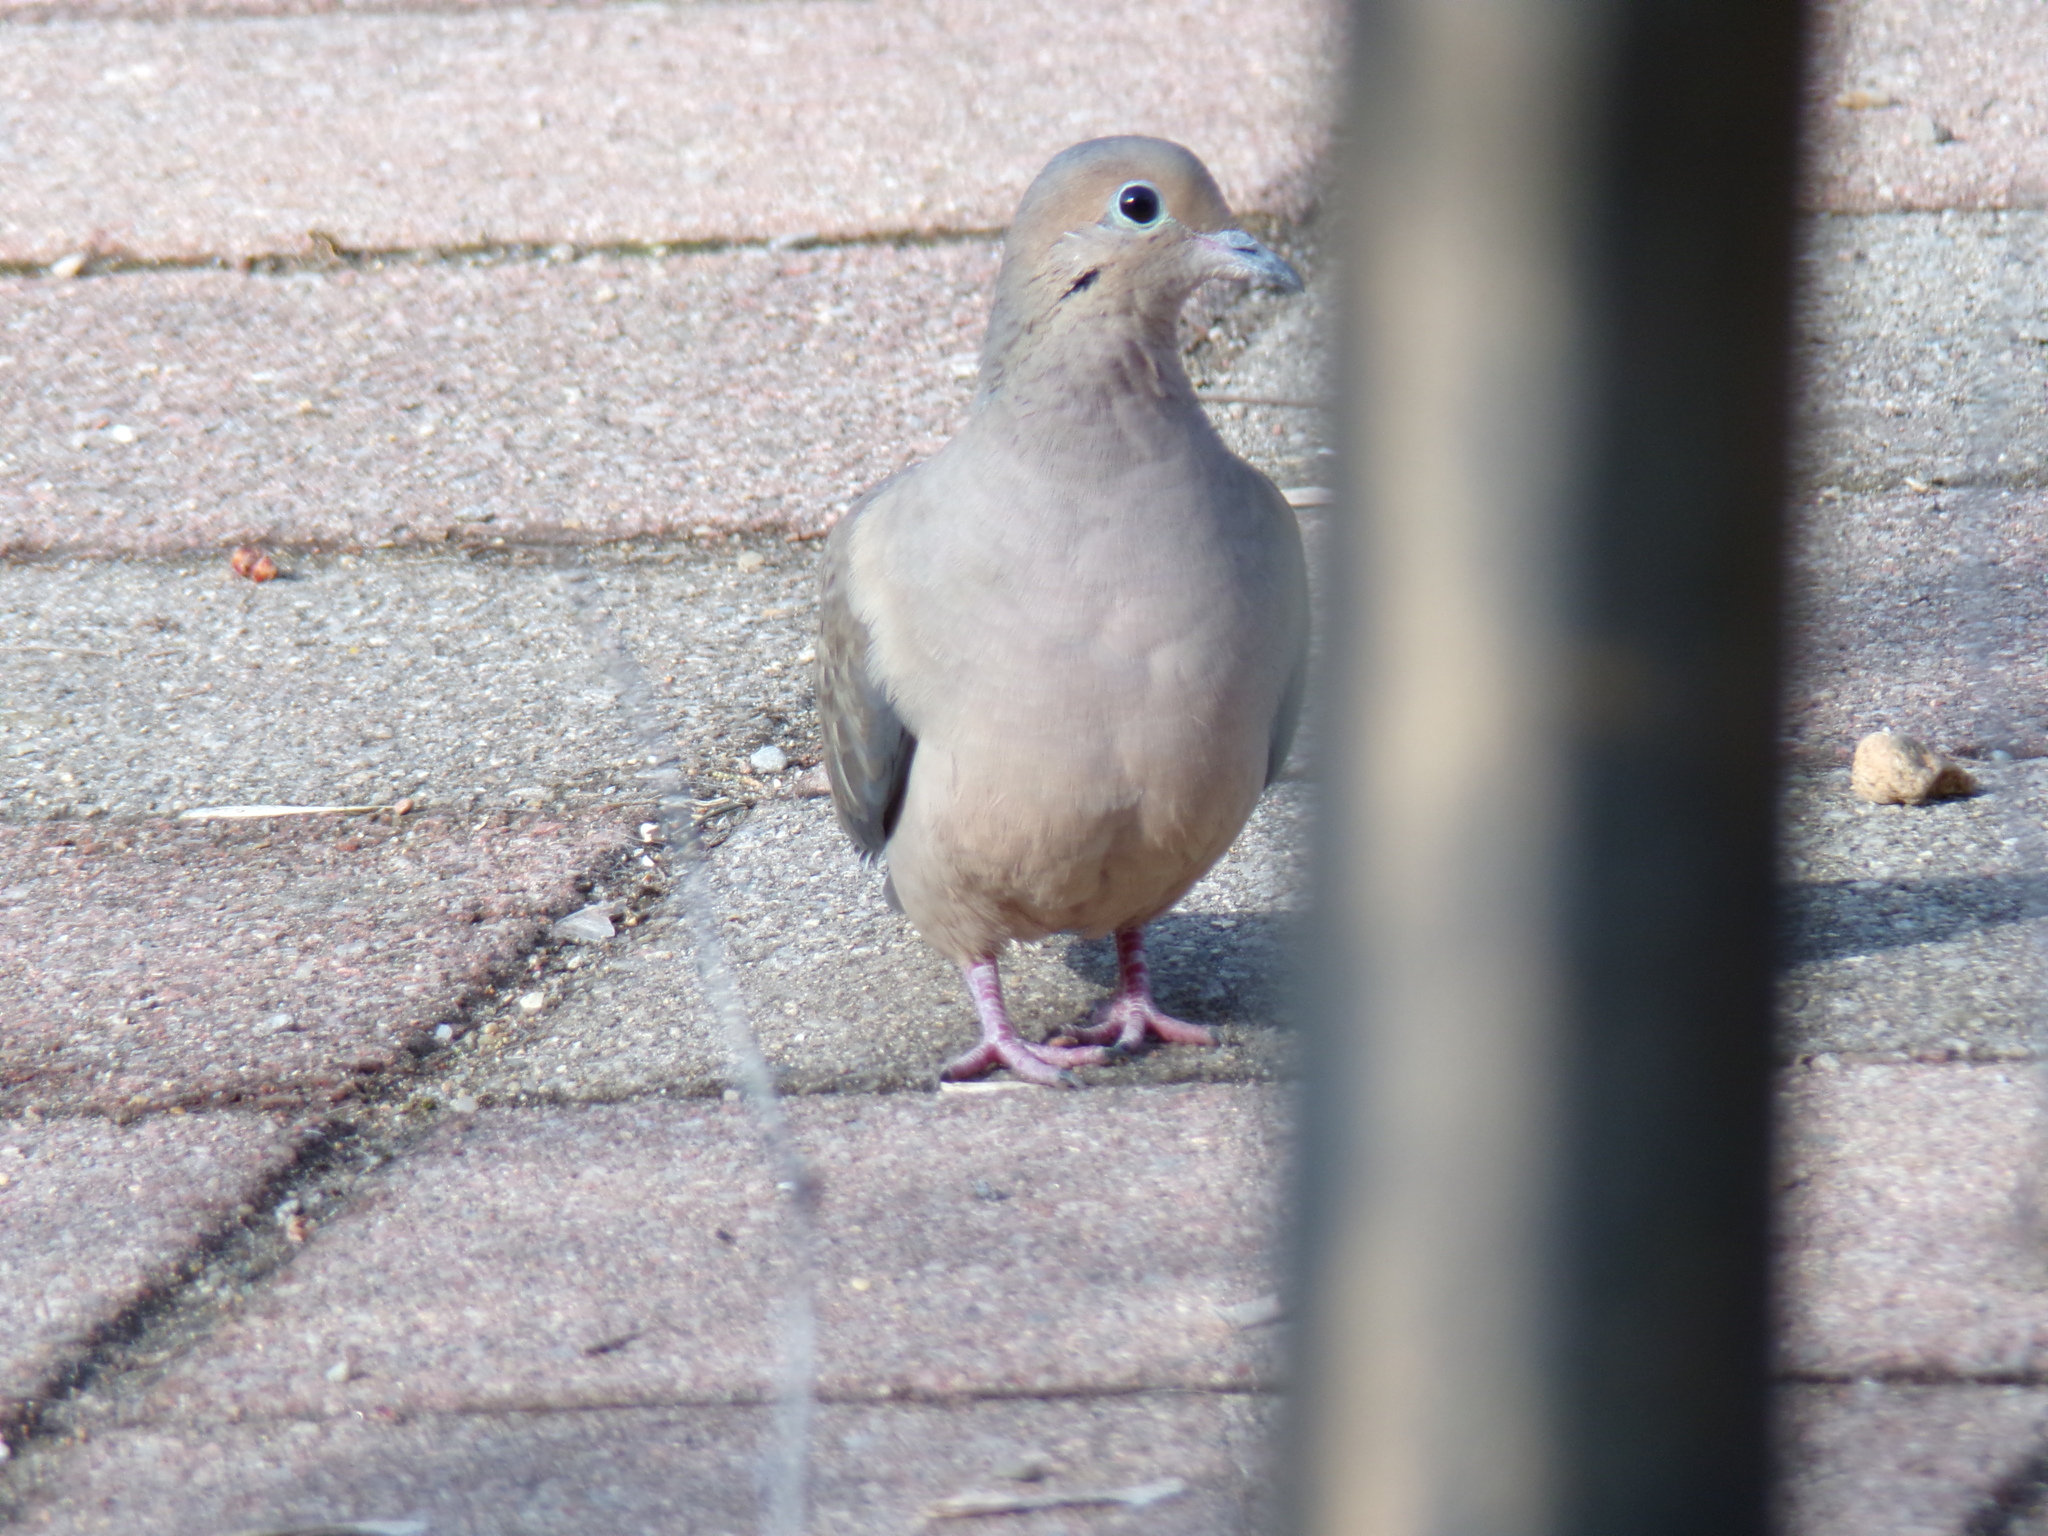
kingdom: Animalia
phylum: Chordata
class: Aves
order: Columbiformes
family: Columbidae
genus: Zenaida
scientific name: Zenaida macroura
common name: Mourning dove
